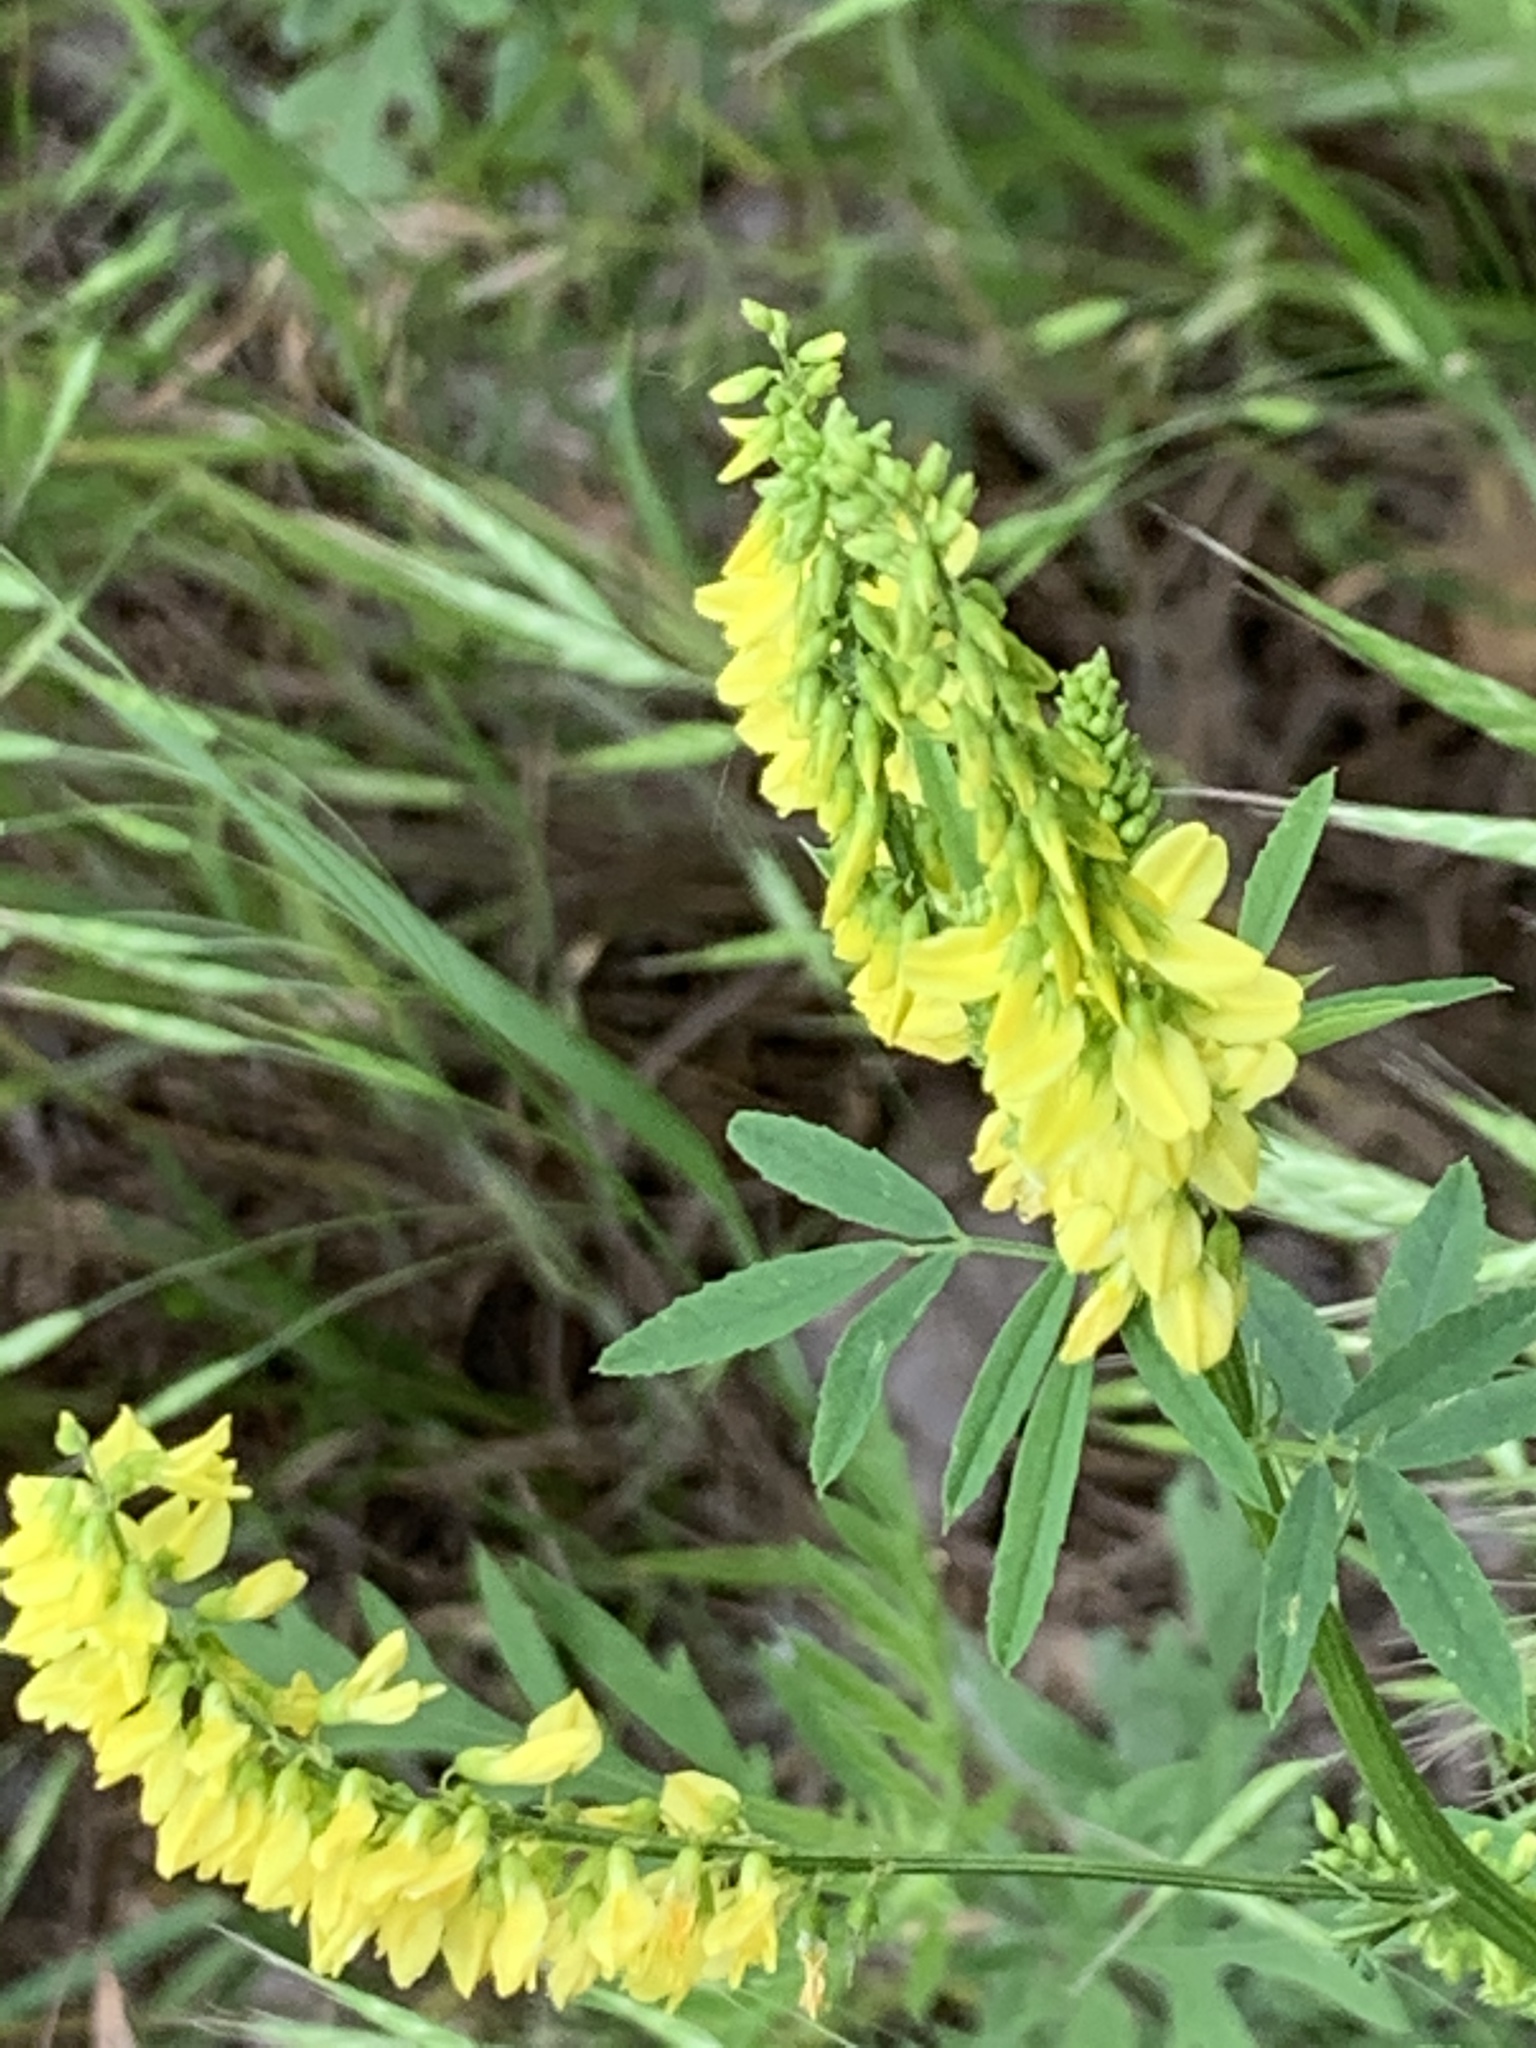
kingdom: Plantae
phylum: Tracheophyta
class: Magnoliopsida
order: Fabales
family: Fabaceae
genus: Melilotus
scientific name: Melilotus officinalis
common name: Sweetclover
